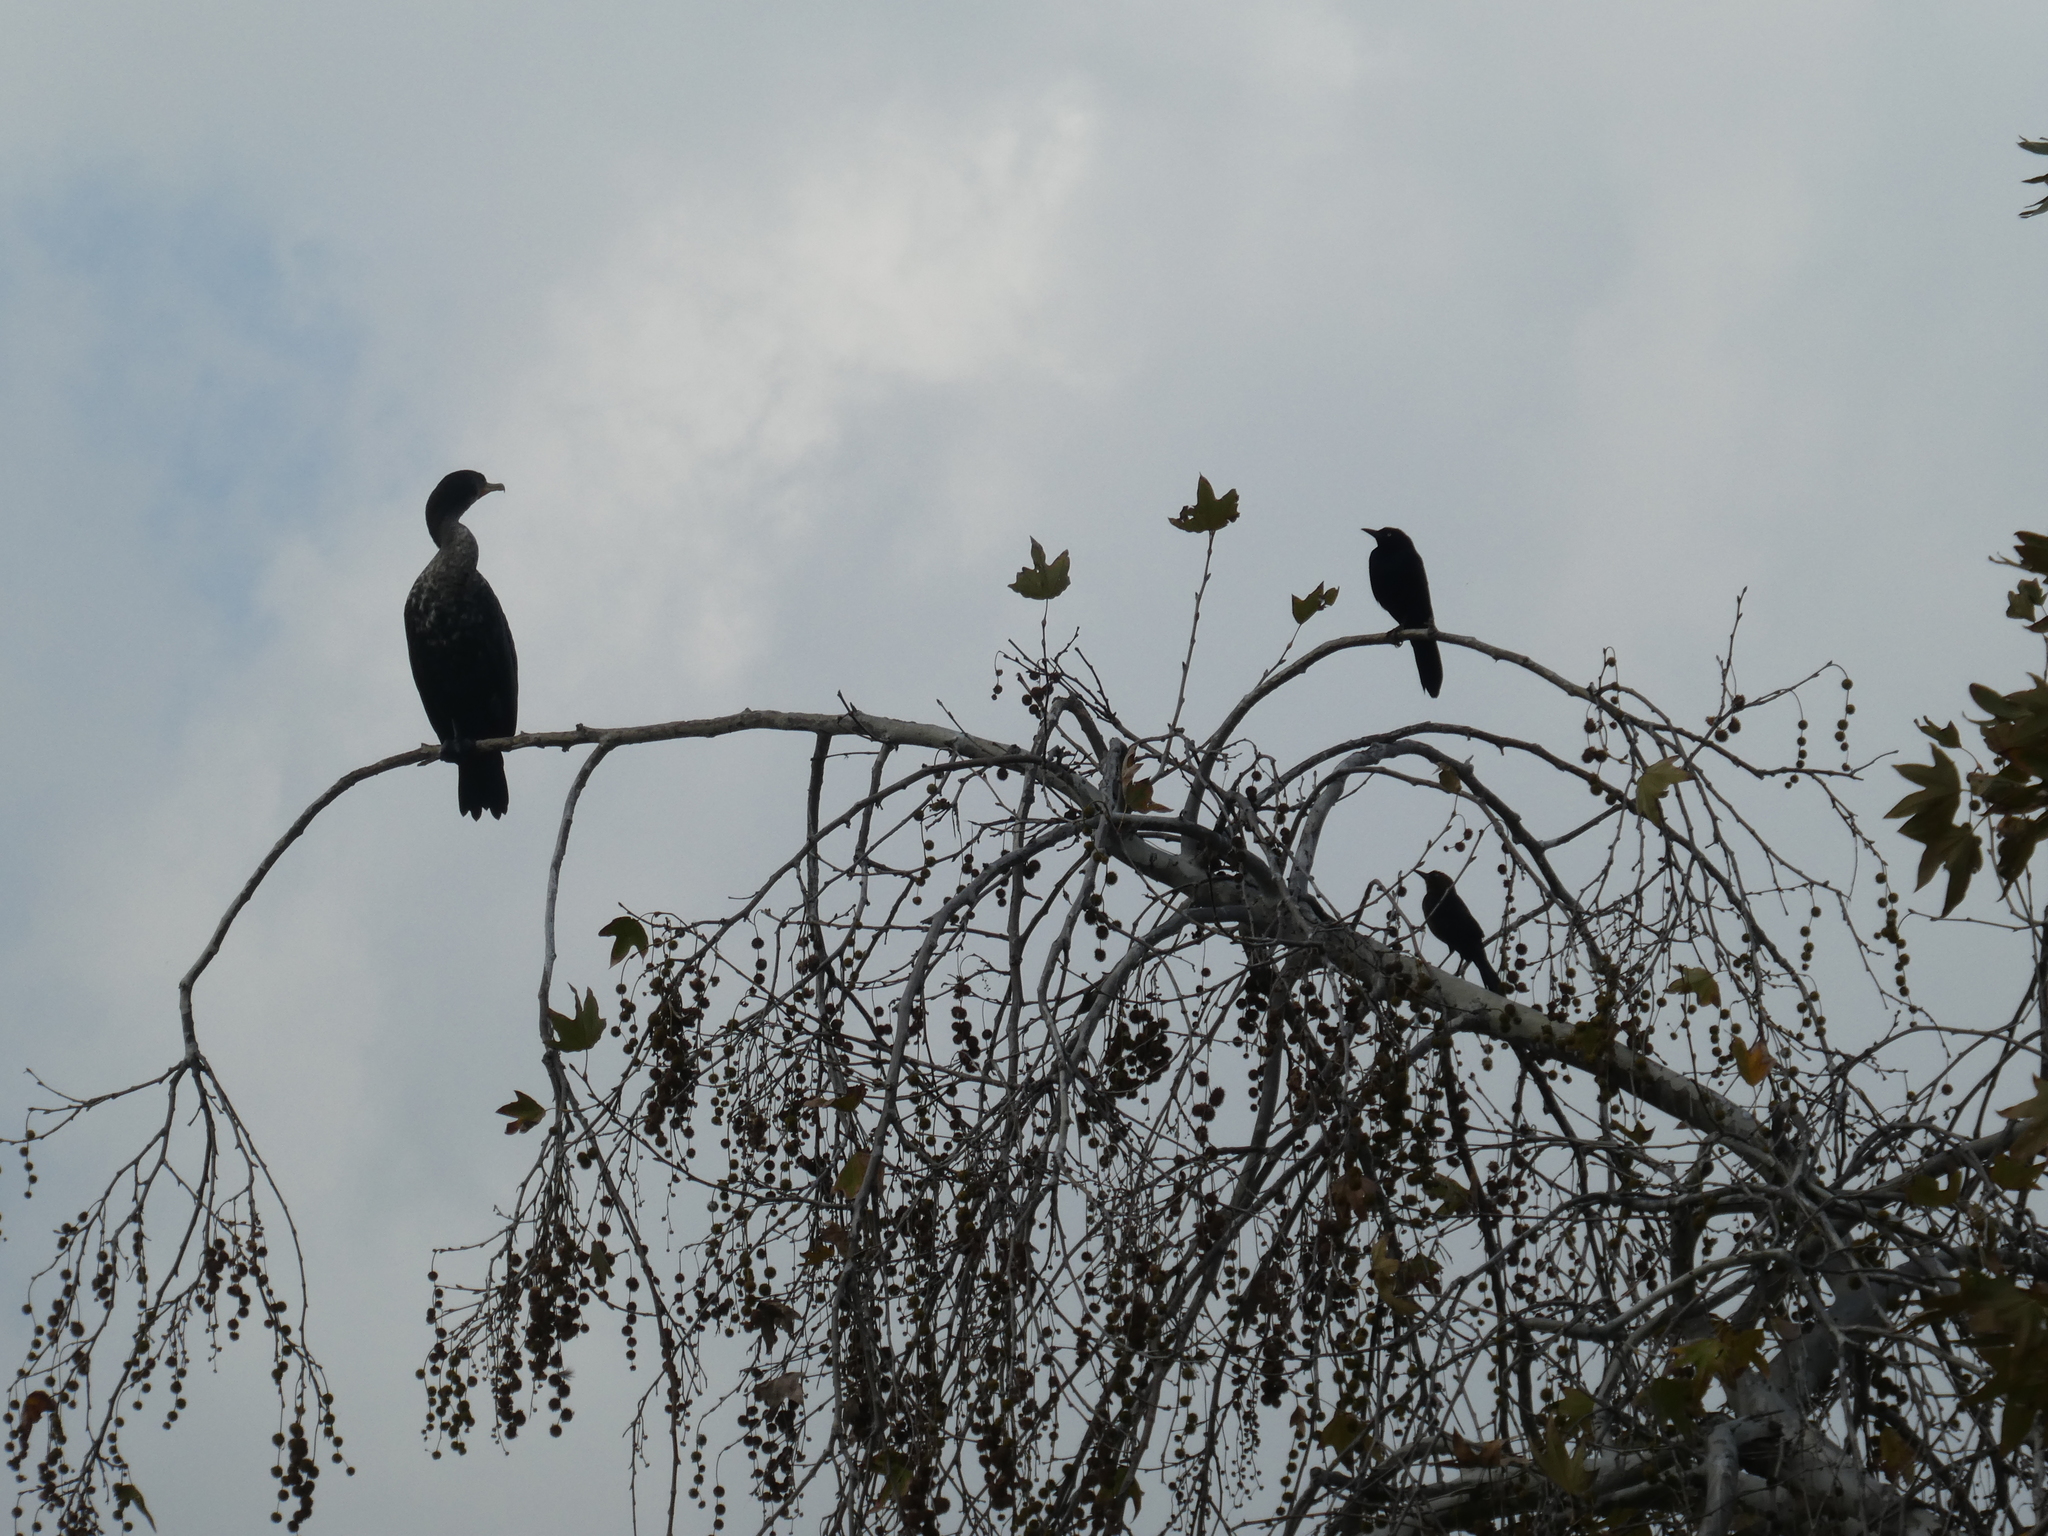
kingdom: Animalia
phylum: Chordata
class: Aves
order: Suliformes
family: Phalacrocoracidae
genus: Phalacrocorax
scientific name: Phalacrocorax auritus
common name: Double-crested cormorant
